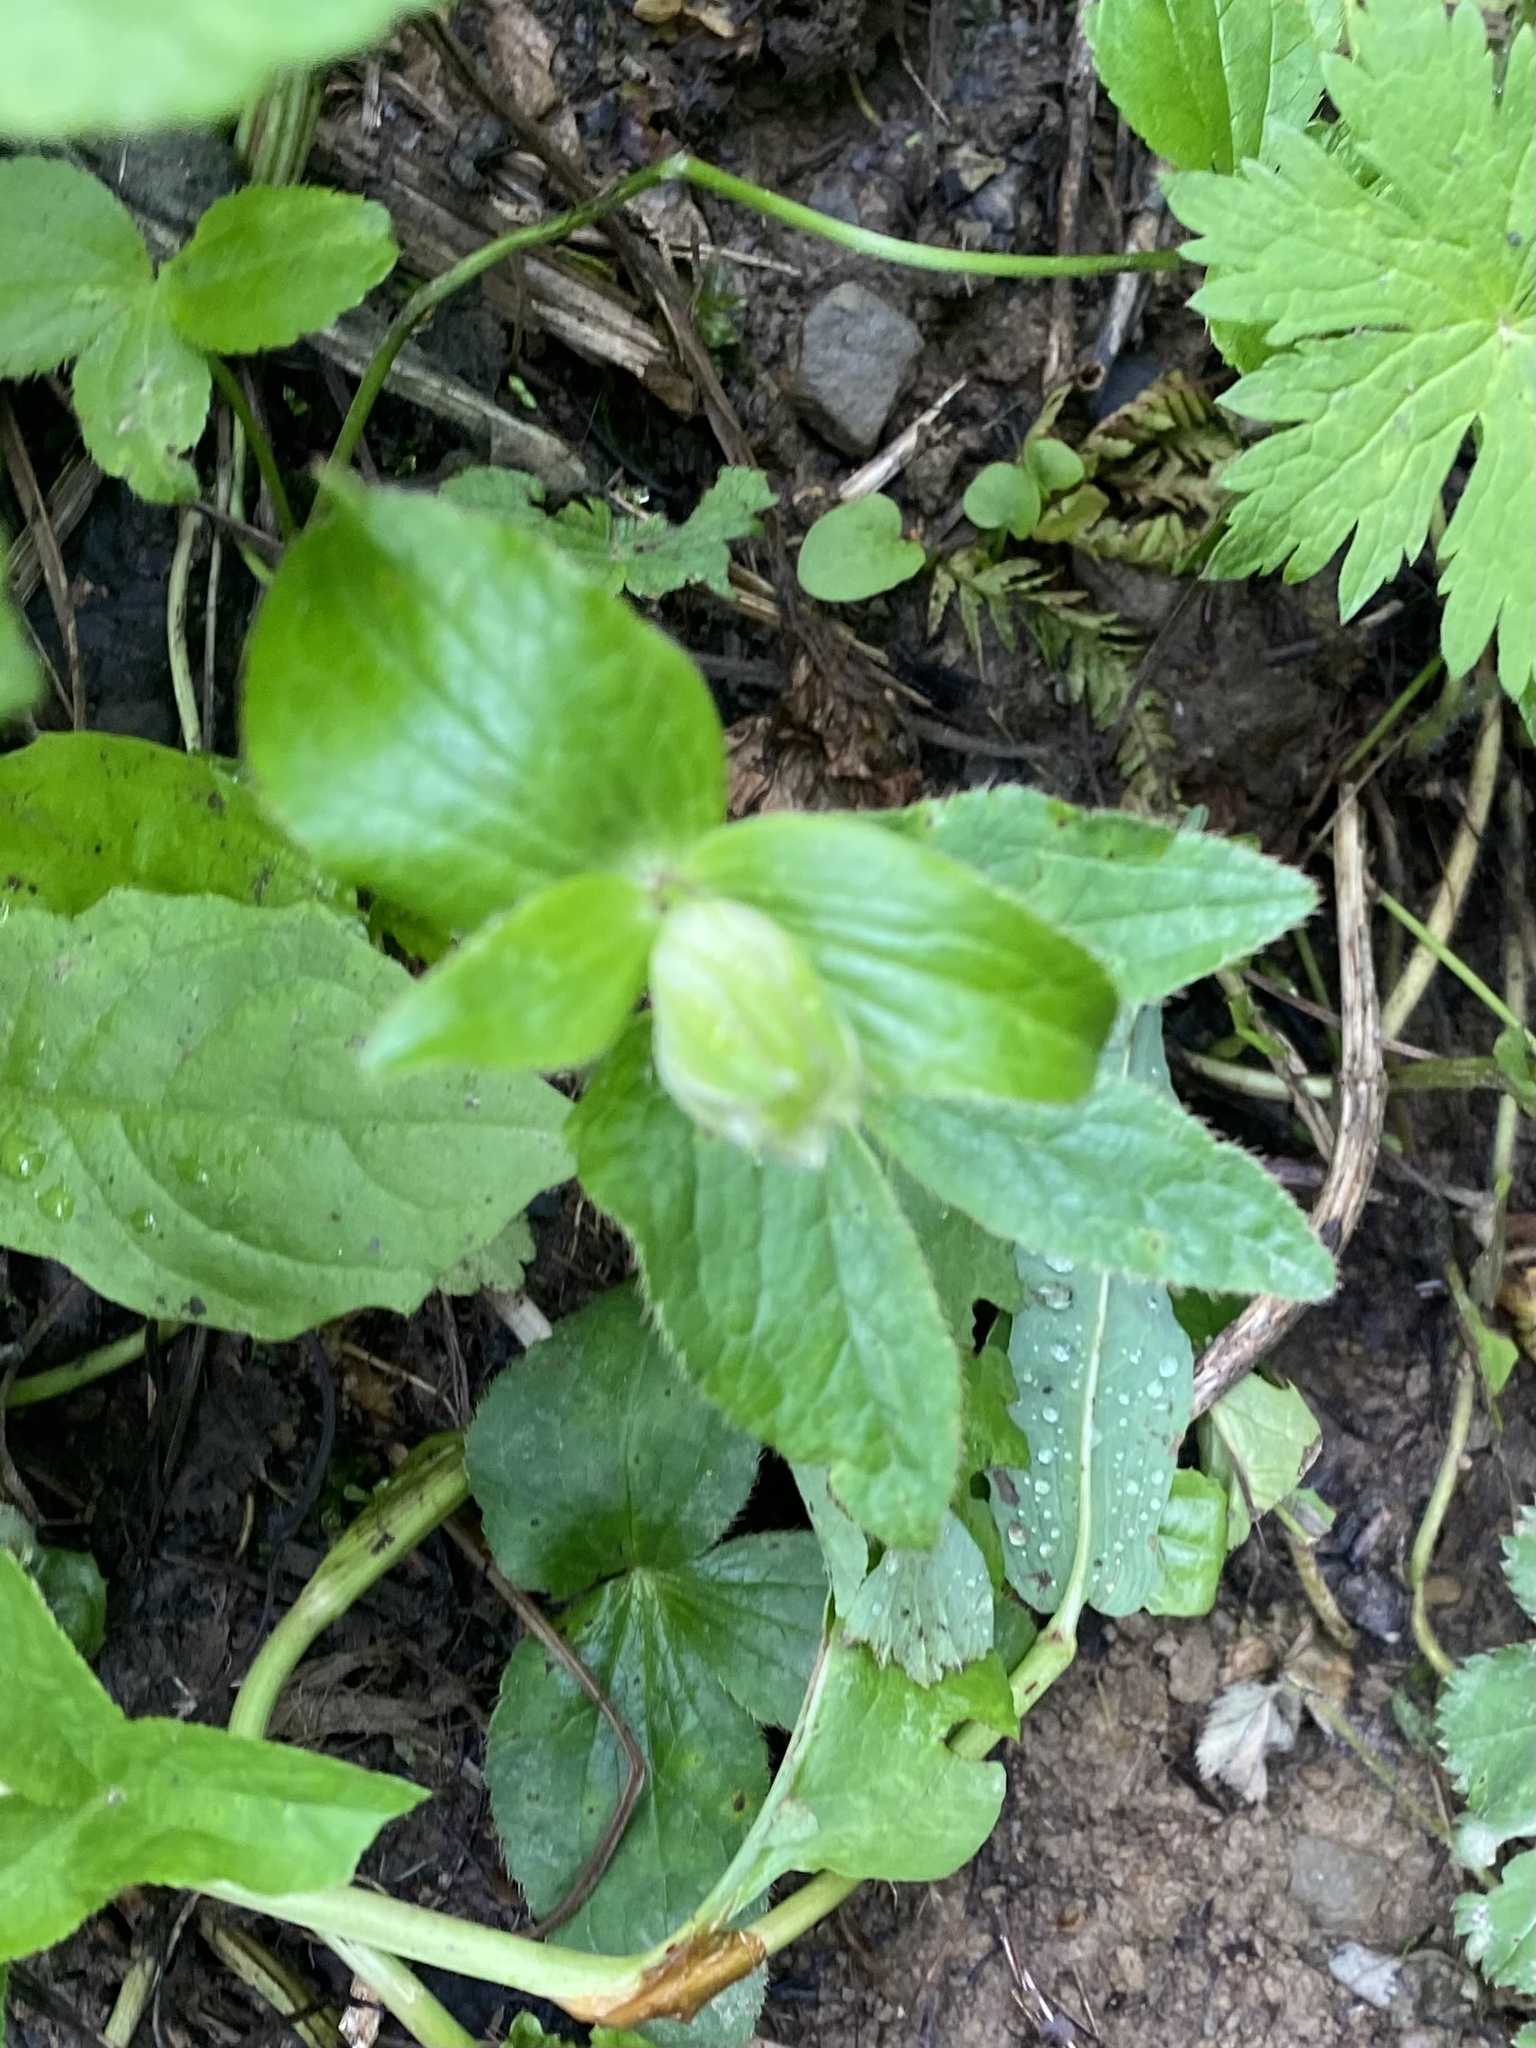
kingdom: Plantae
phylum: Tracheophyta
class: Magnoliopsida
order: Apiales
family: Apiaceae
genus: Astrantia
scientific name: Astrantia maxima
